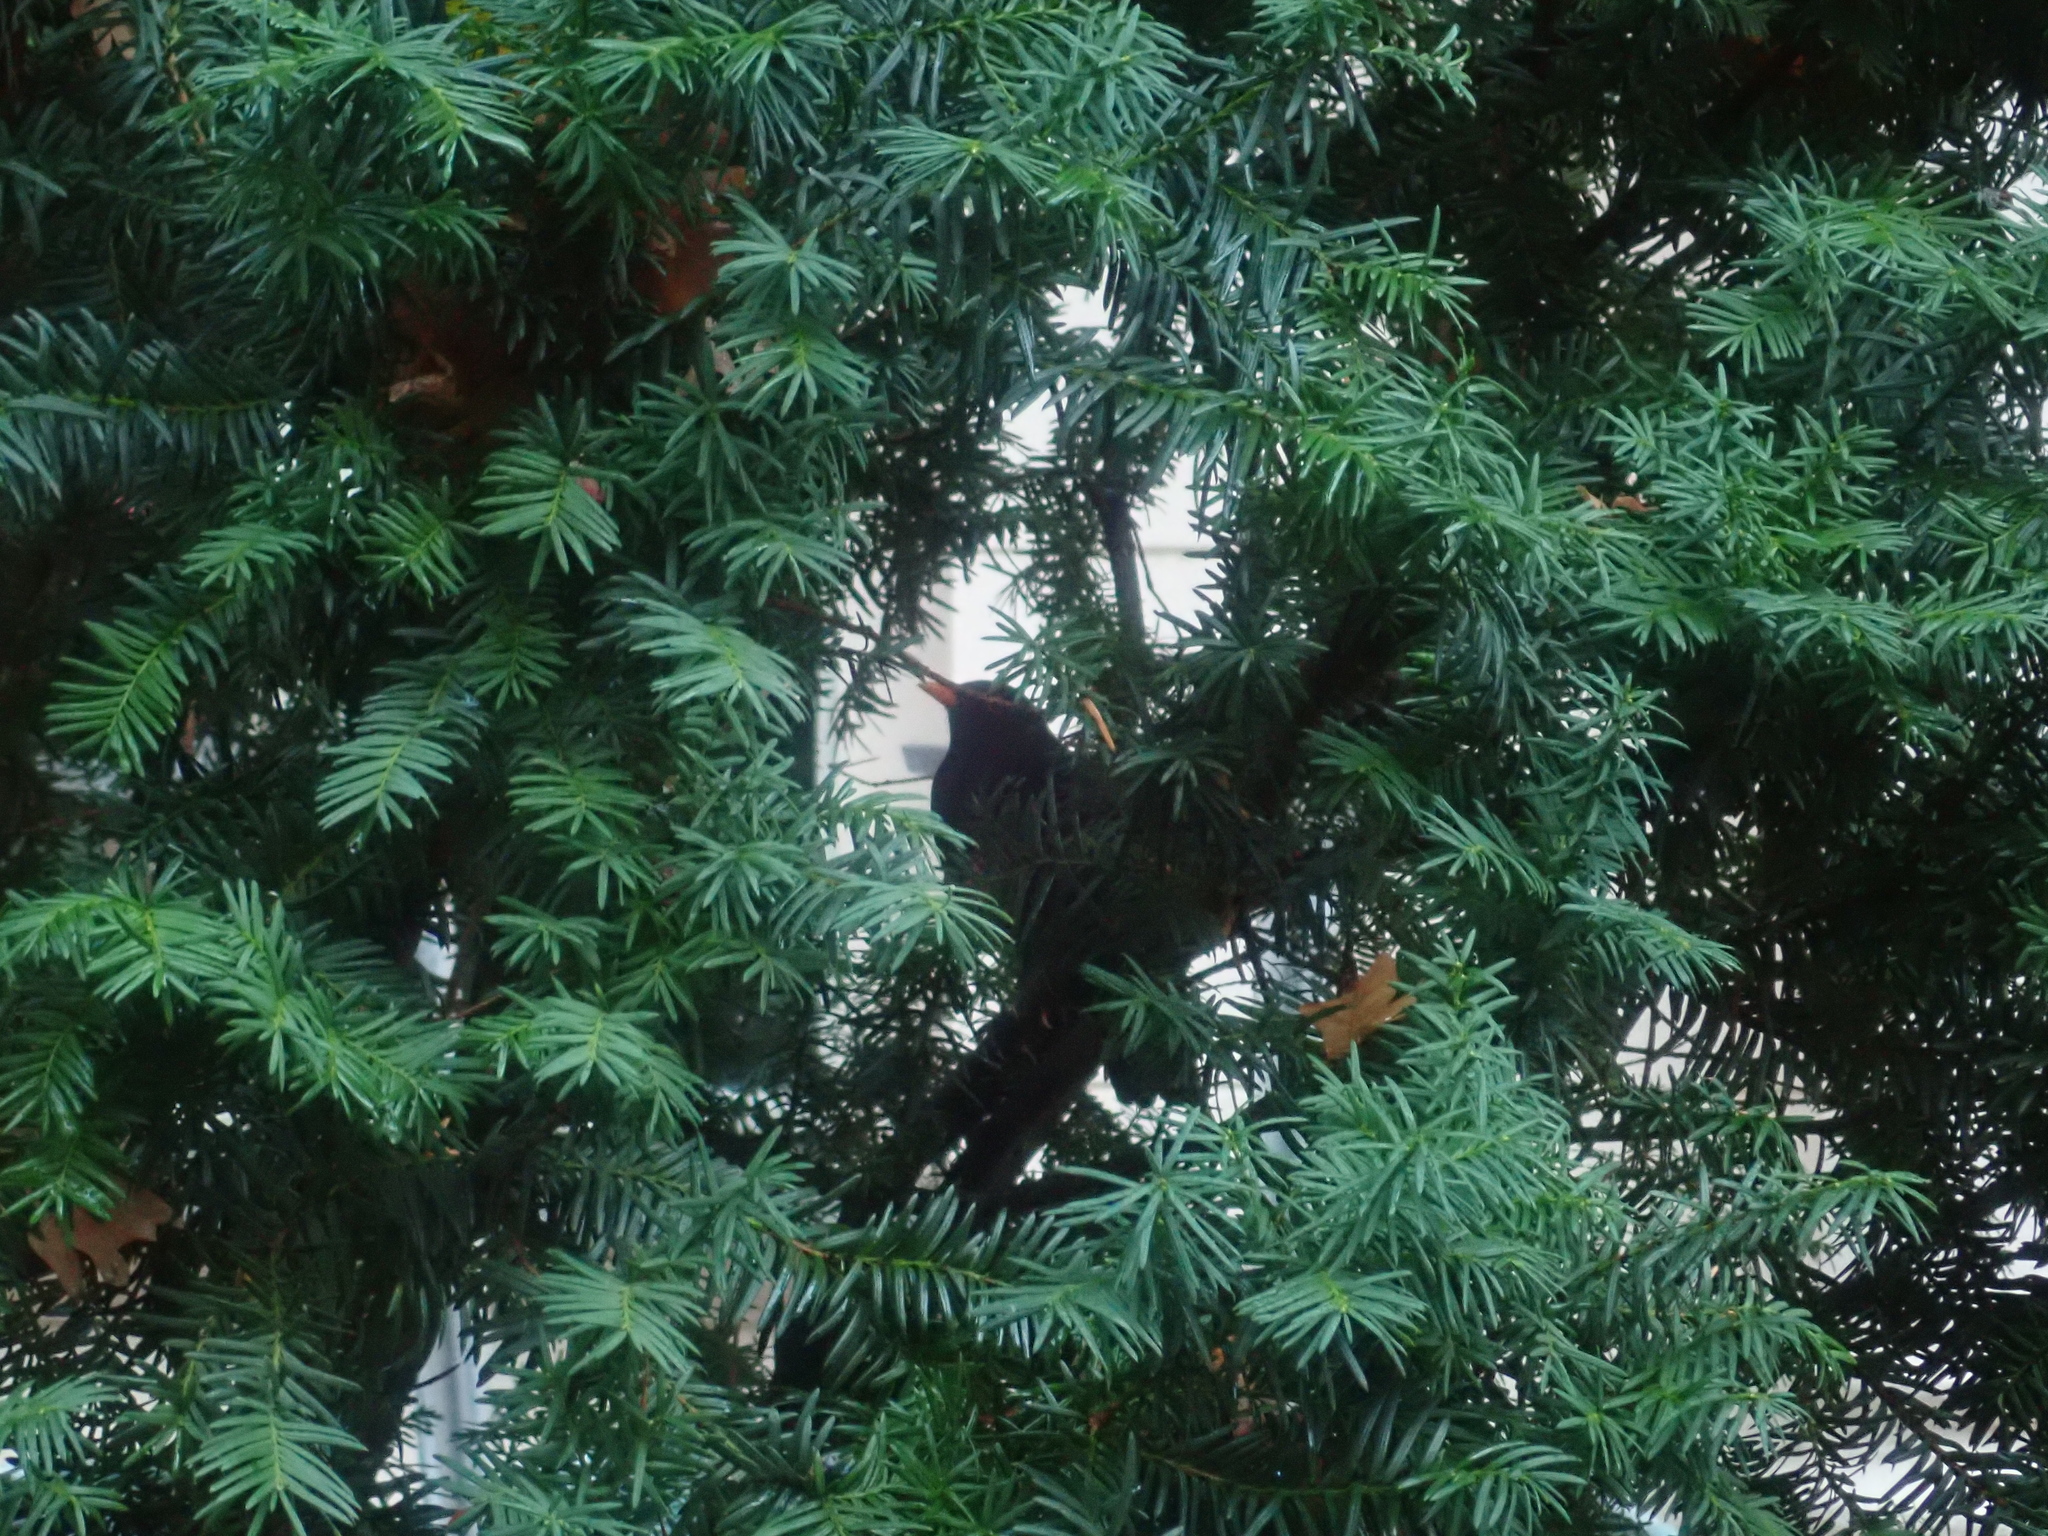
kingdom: Animalia
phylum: Chordata
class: Aves
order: Passeriformes
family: Turdidae
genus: Turdus
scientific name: Turdus merula
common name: Common blackbird
